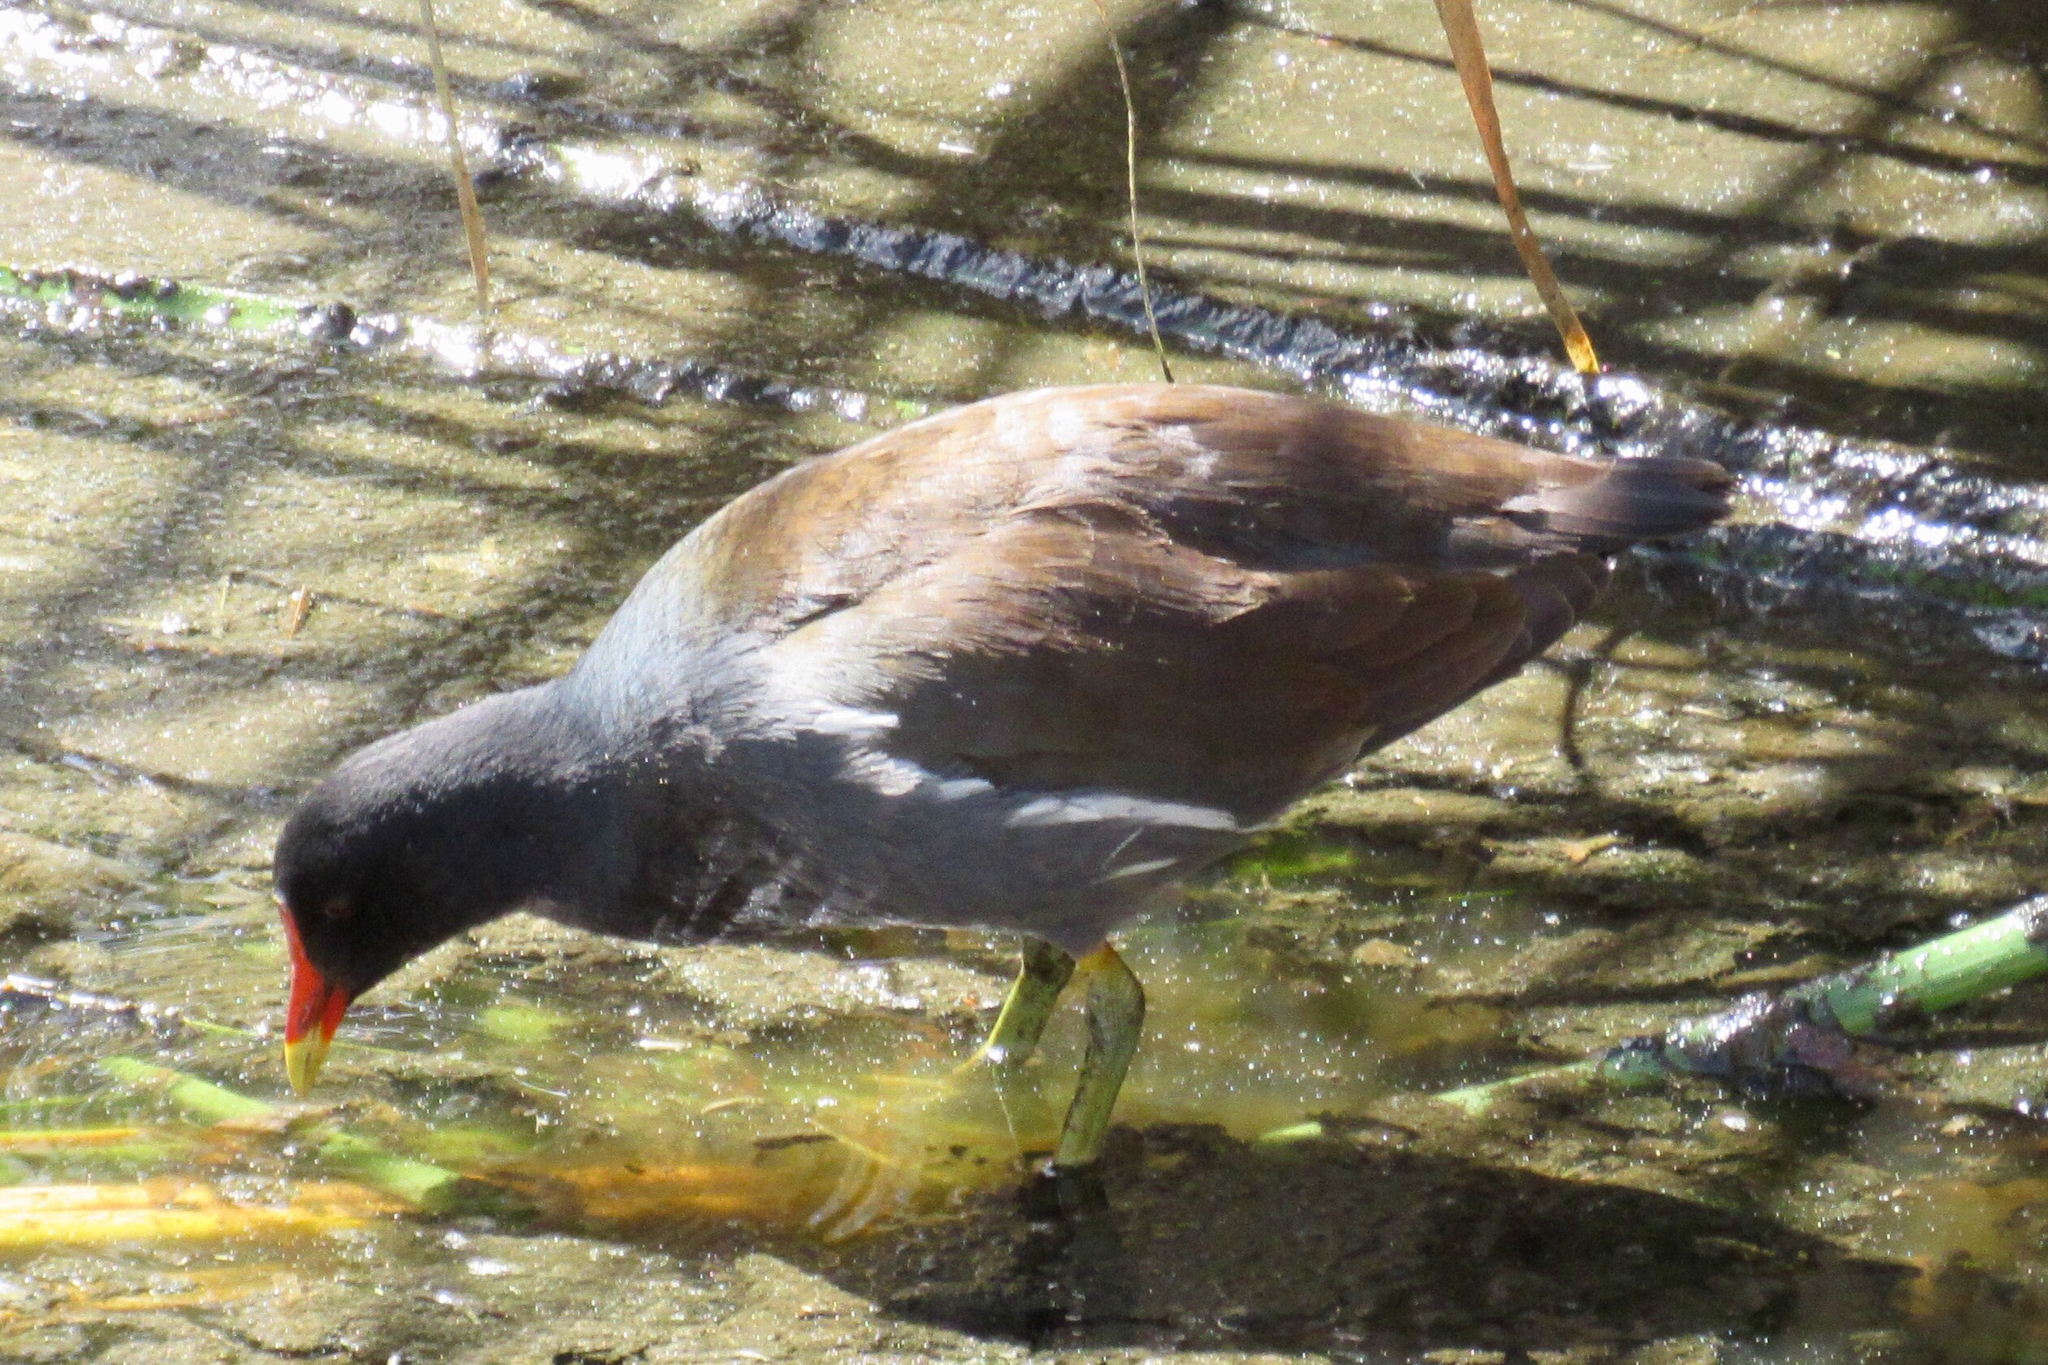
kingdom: Animalia
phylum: Chordata
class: Aves
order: Gruiformes
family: Rallidae
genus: Gallinula
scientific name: Gallinula chloropus
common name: Common moorhen
